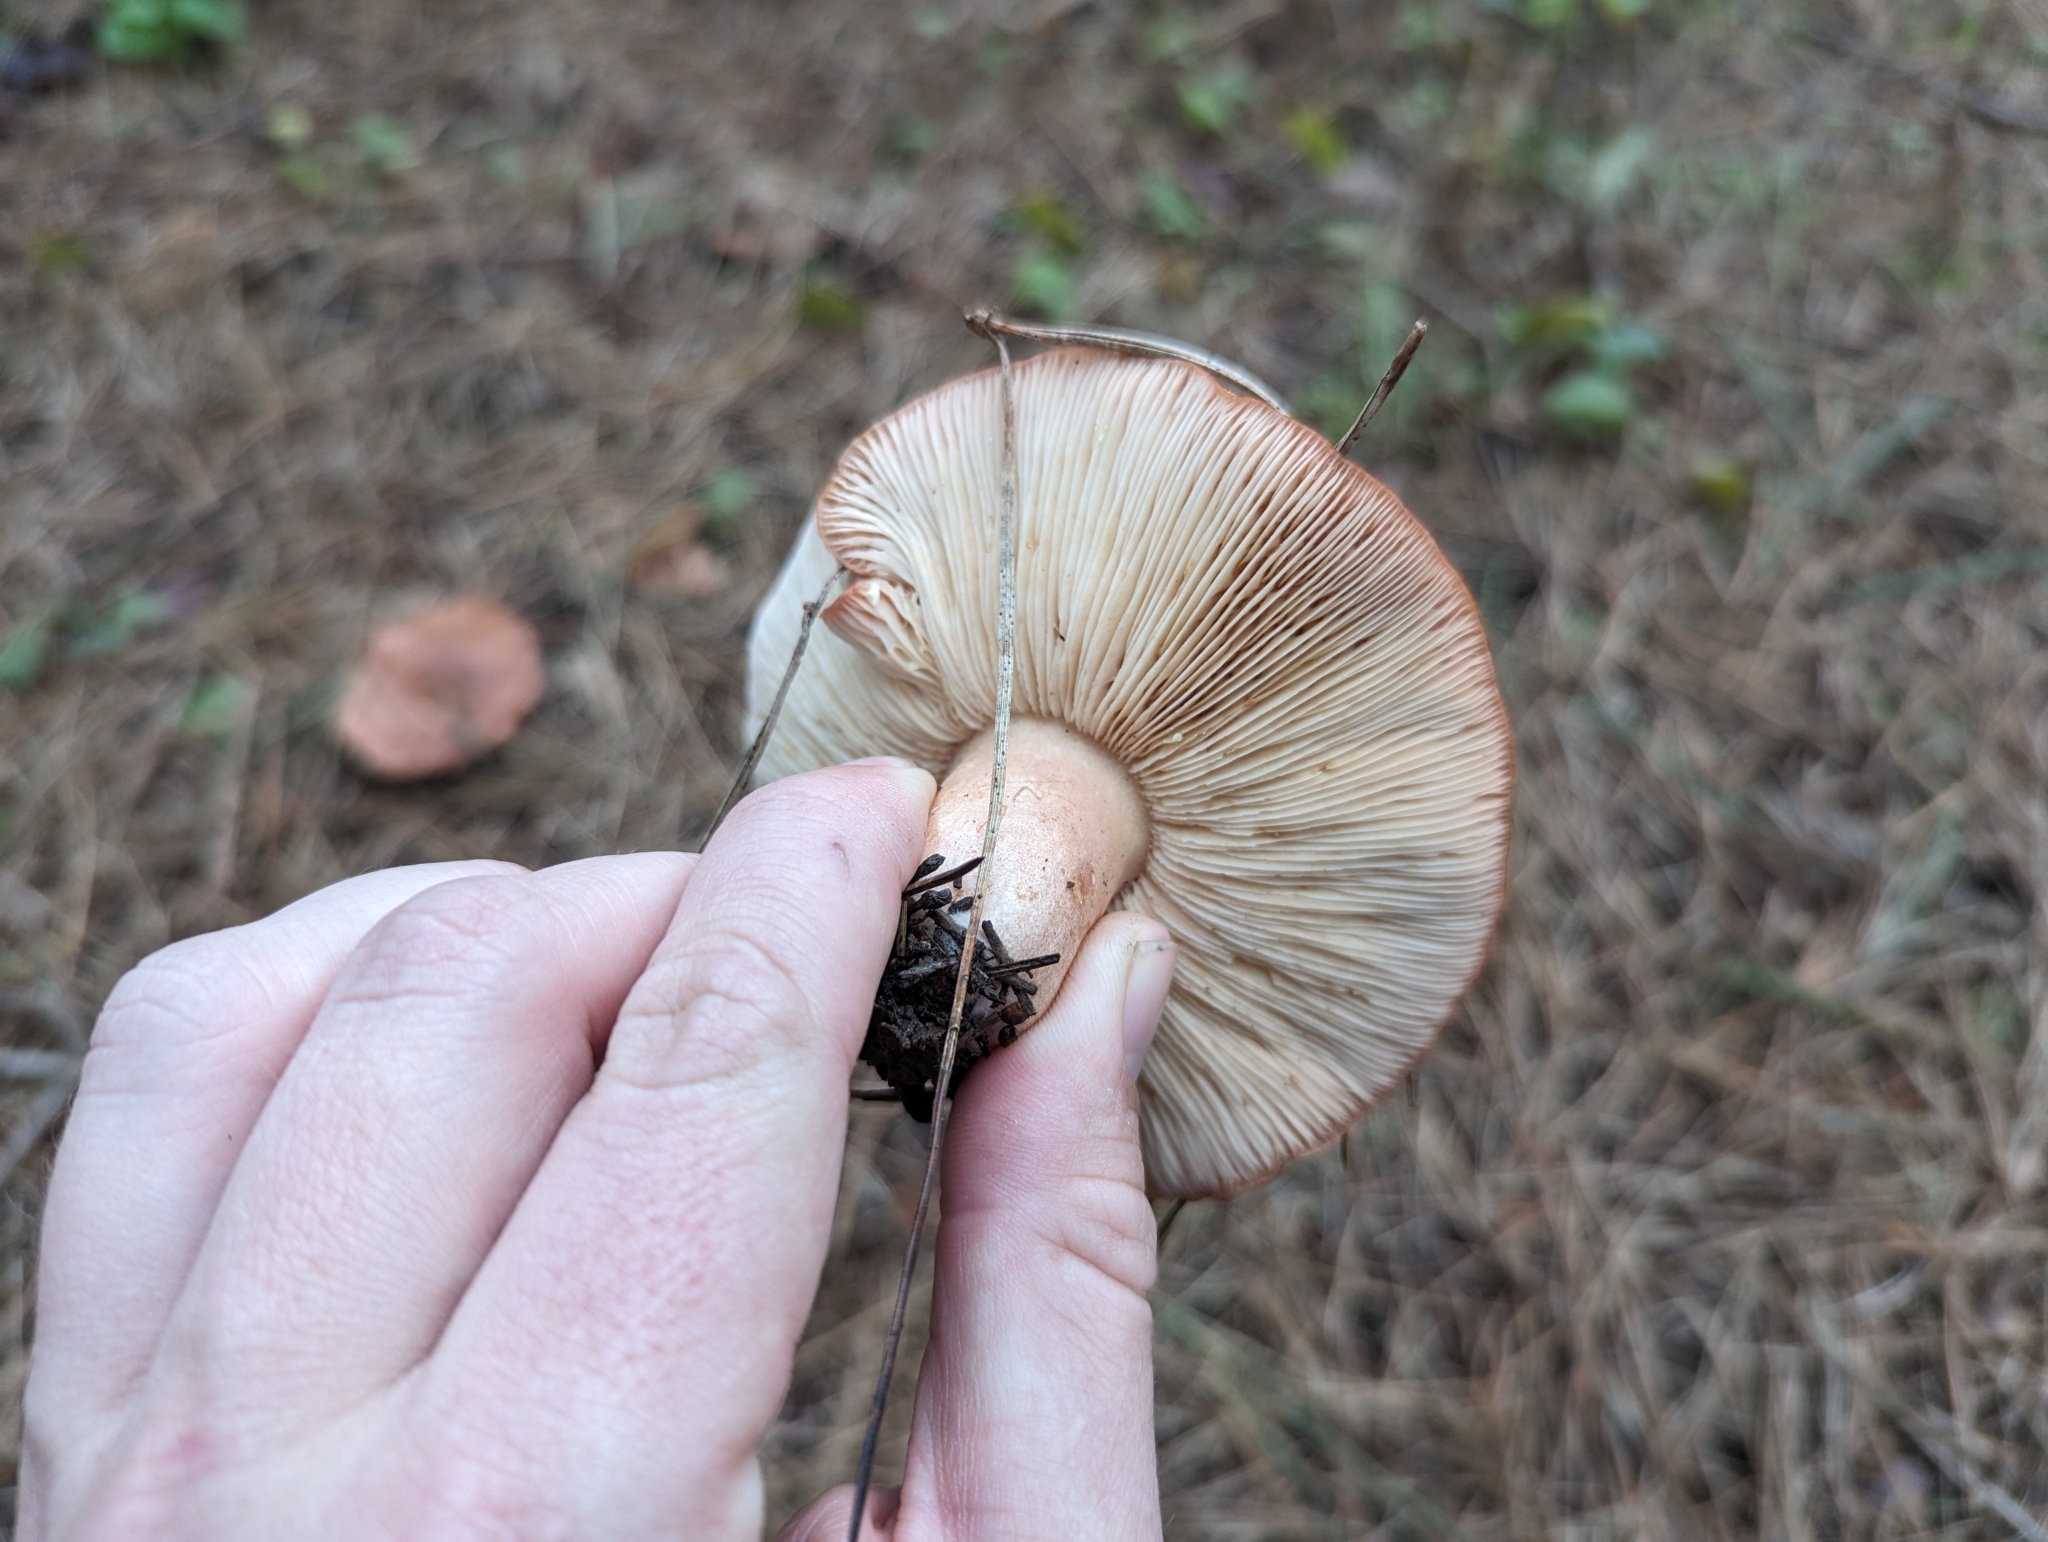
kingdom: Fungi
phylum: Basidiomycota
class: Agaricomycetes
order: Russulales
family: Russulaceae
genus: Lactarius
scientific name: Lactarius xanthogalactus
